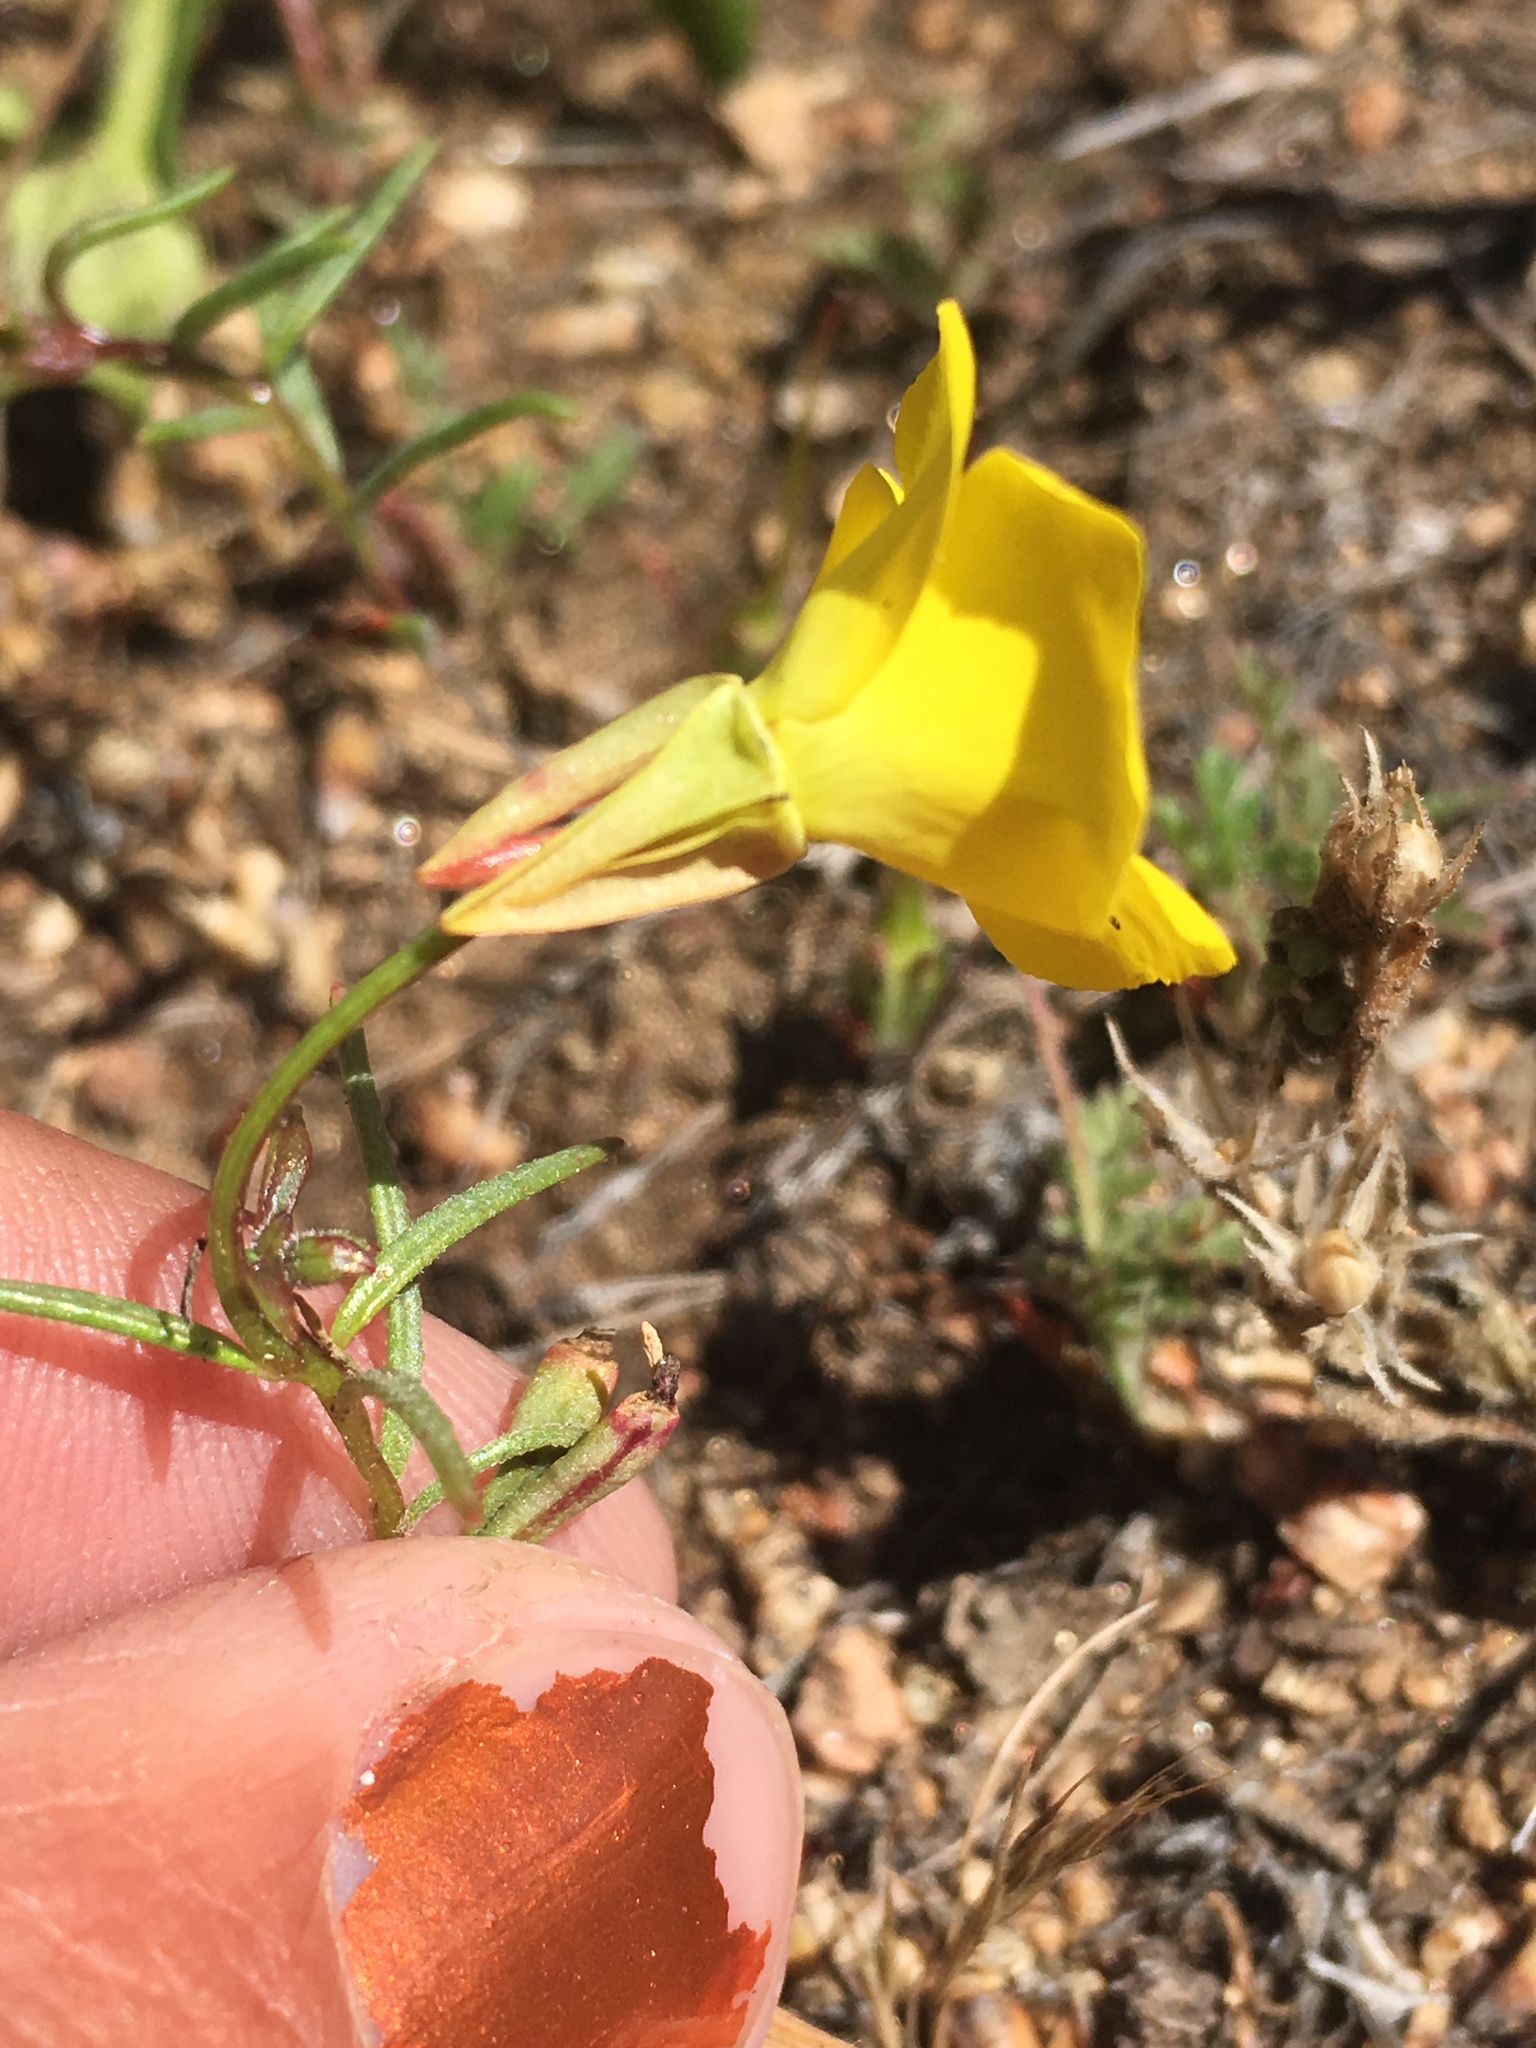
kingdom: Plantae
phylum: Tracheophyta
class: Magnoliopsida
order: Myrtales
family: Onagraceae
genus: Camissonia
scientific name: Camissonia campestris
